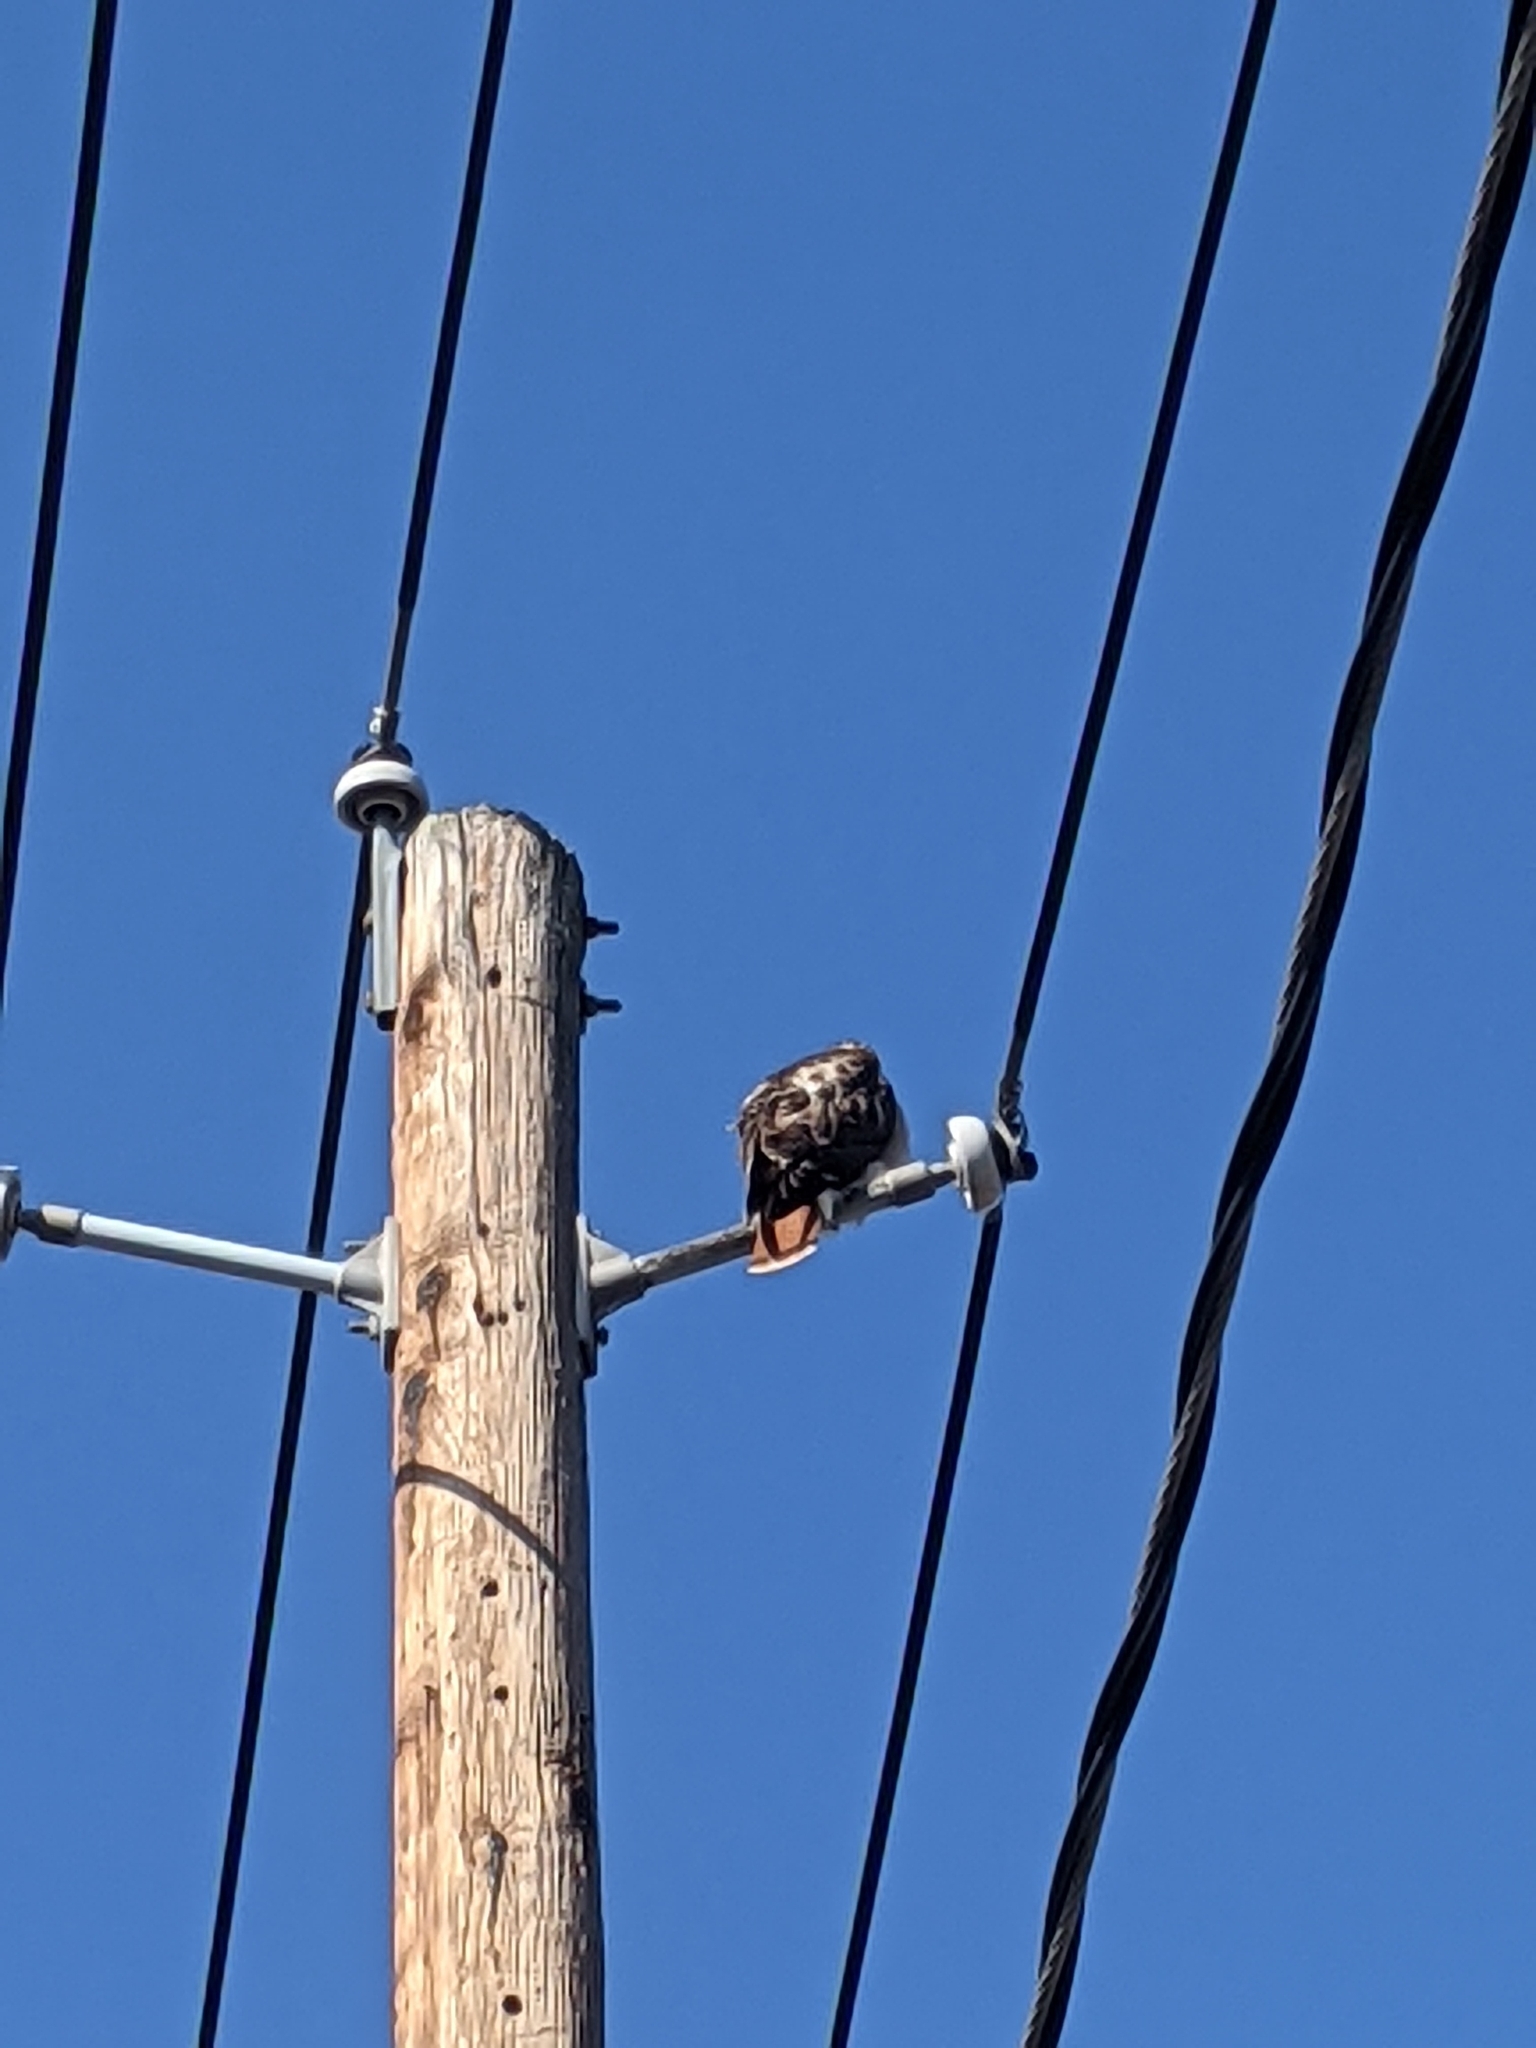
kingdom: Animalia
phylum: Chordata
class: Aves
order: Accipitriformes
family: Accipitridae
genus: Buteo
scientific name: Buteo jamaicensis
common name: Red-tailed hawk
